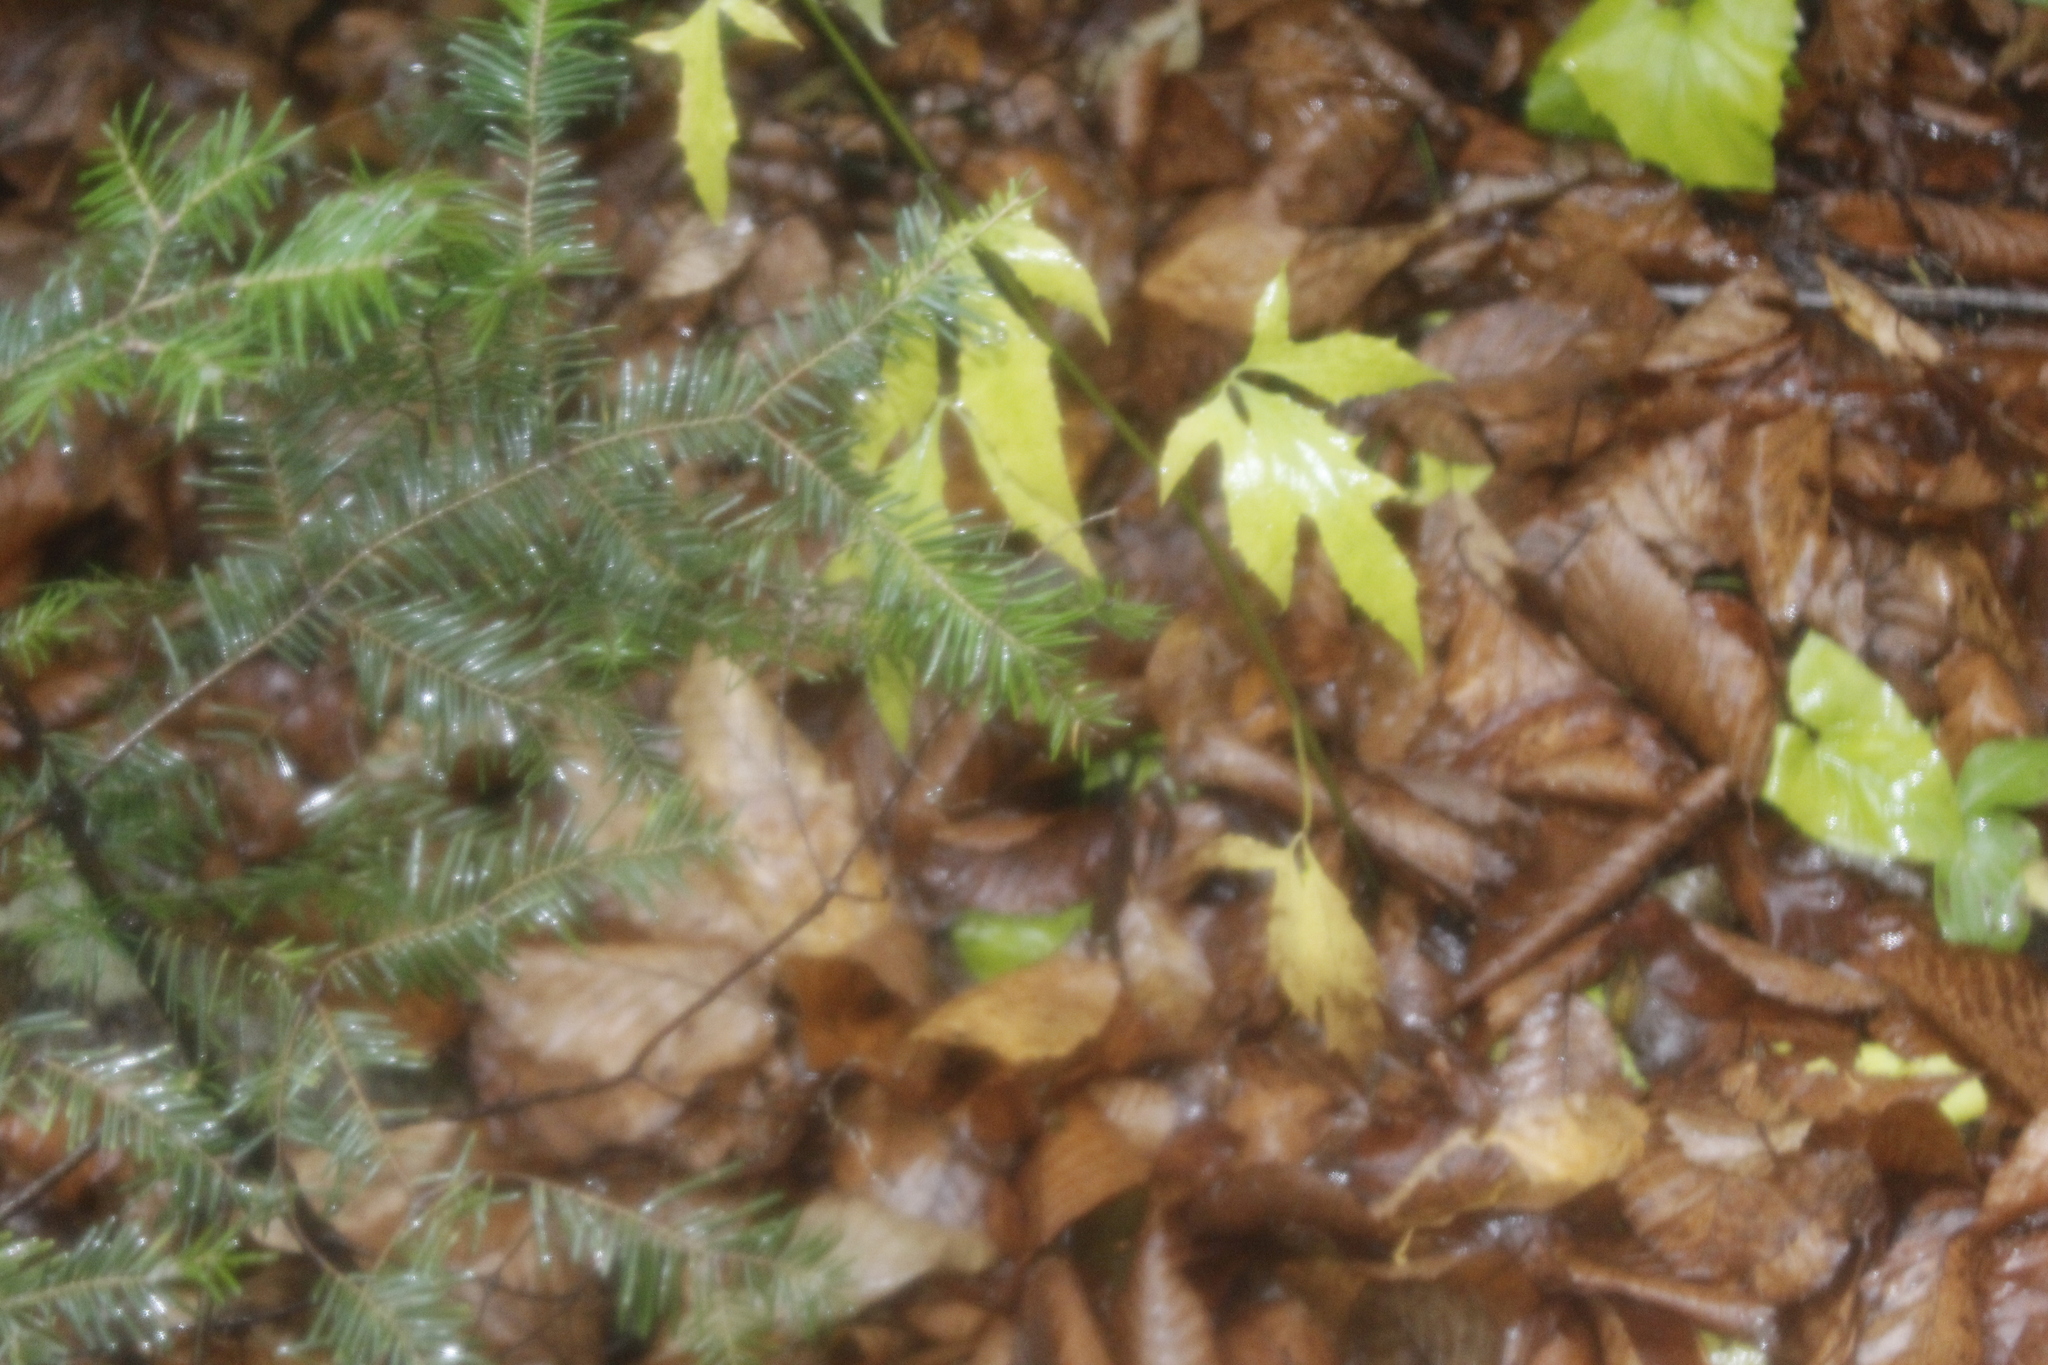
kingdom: Plantae
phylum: Tracheophyta
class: Pinopsida
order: Pinales
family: Pinaceae
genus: Abies
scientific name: Abies balsamea
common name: Balsam fir
